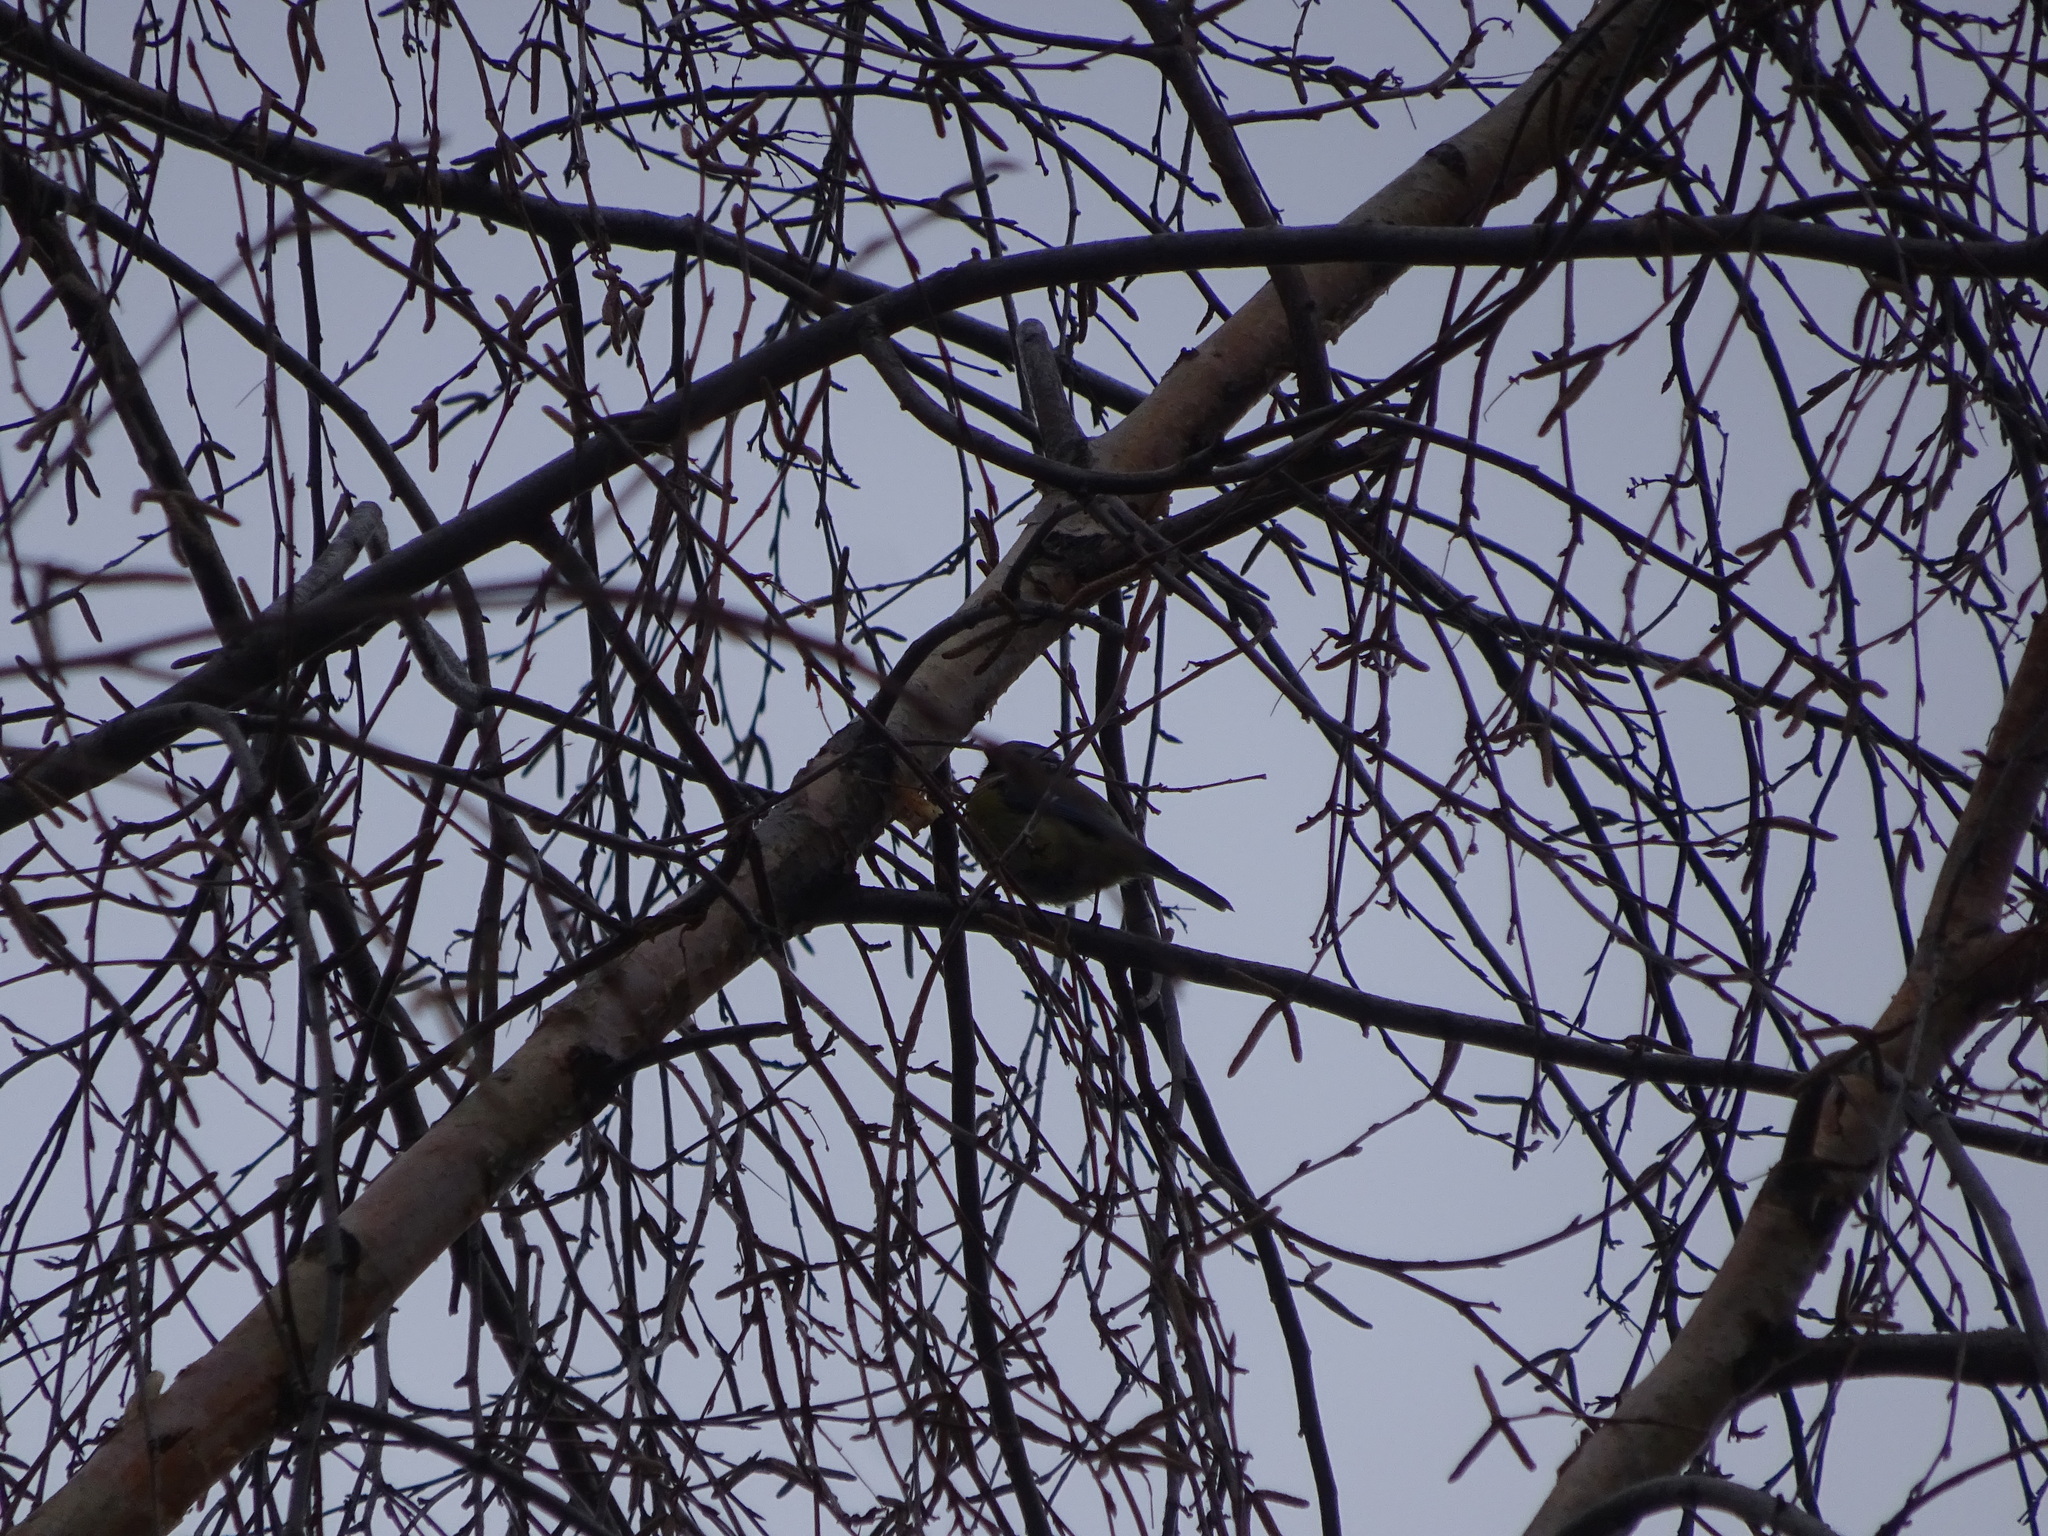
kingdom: Animalia
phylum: Chordata
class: Aves
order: Passeriformes
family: Paridae
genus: Cyanistes
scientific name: Cyanistes caeruleus
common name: Eurasian blue tit
